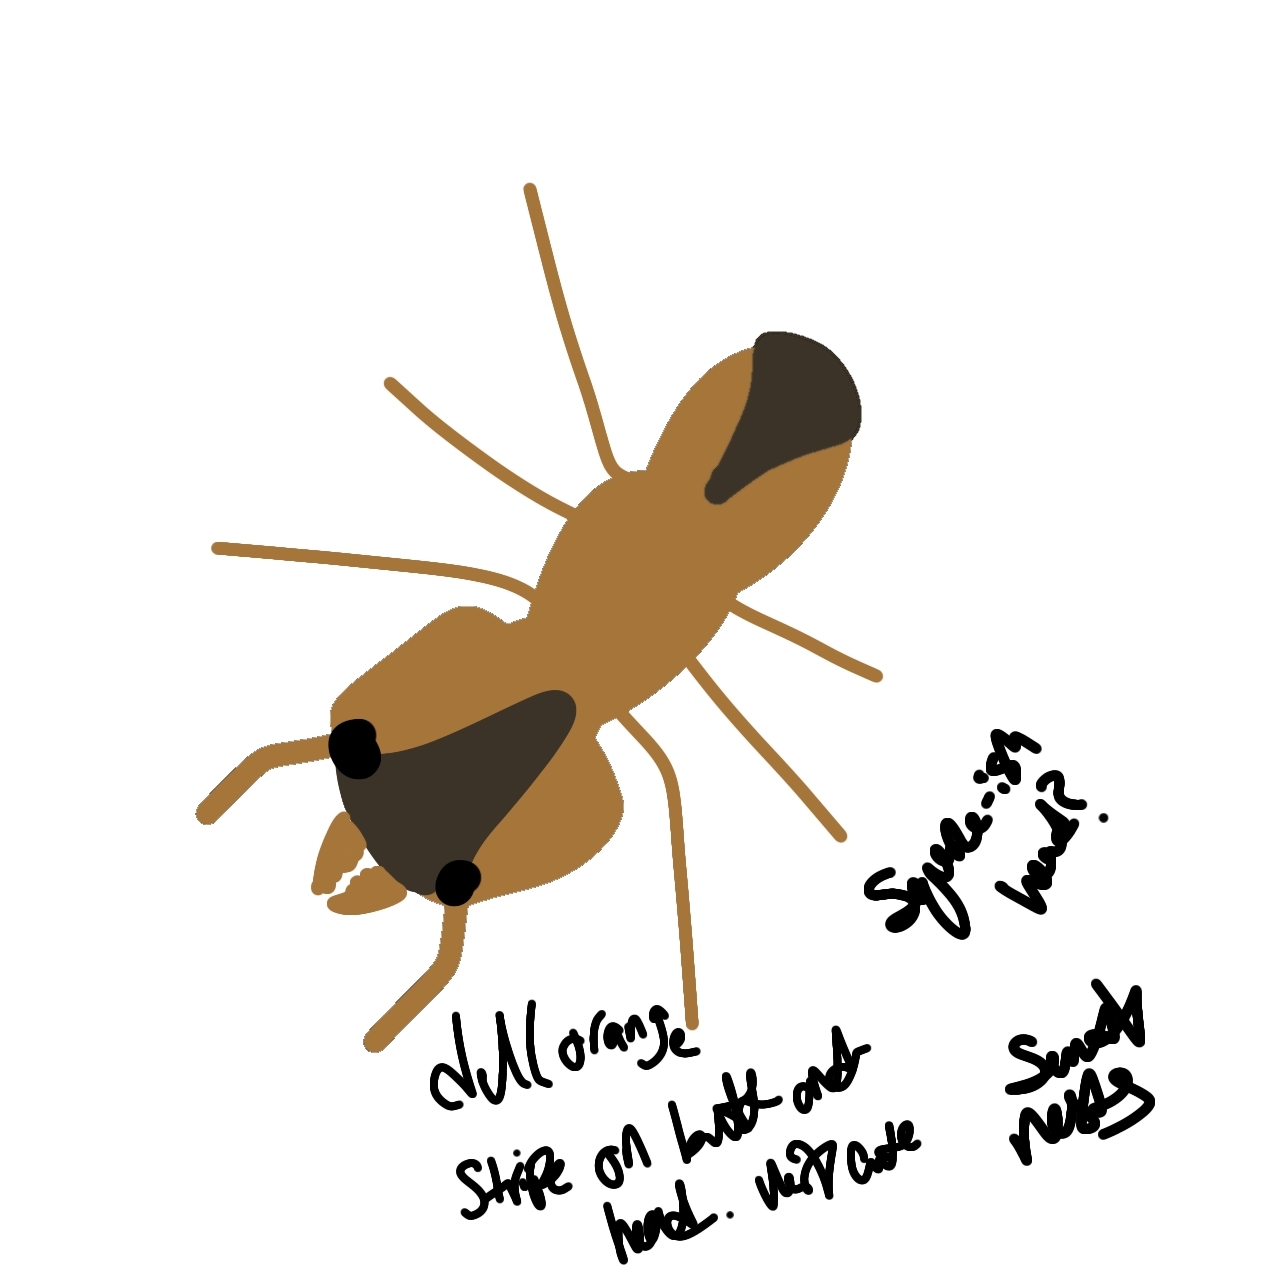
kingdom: Animalia
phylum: Arthropoda
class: Insecta
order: Hymenoptera
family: Formicidae
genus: Trachymyrmex
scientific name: Trachymyrmex septentrionalis
